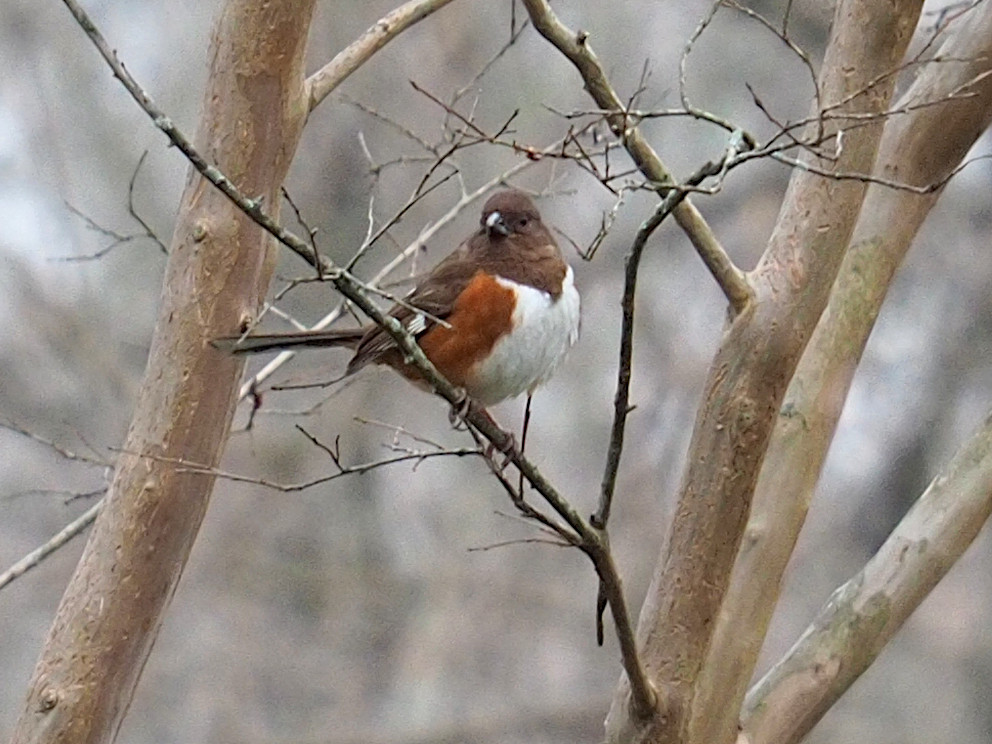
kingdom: Animalia
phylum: Chordata
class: Aves
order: Passeriformes
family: Passerellidae
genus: Pipilo
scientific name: Pipilo erythrophthalmus
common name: Eastern towhee
